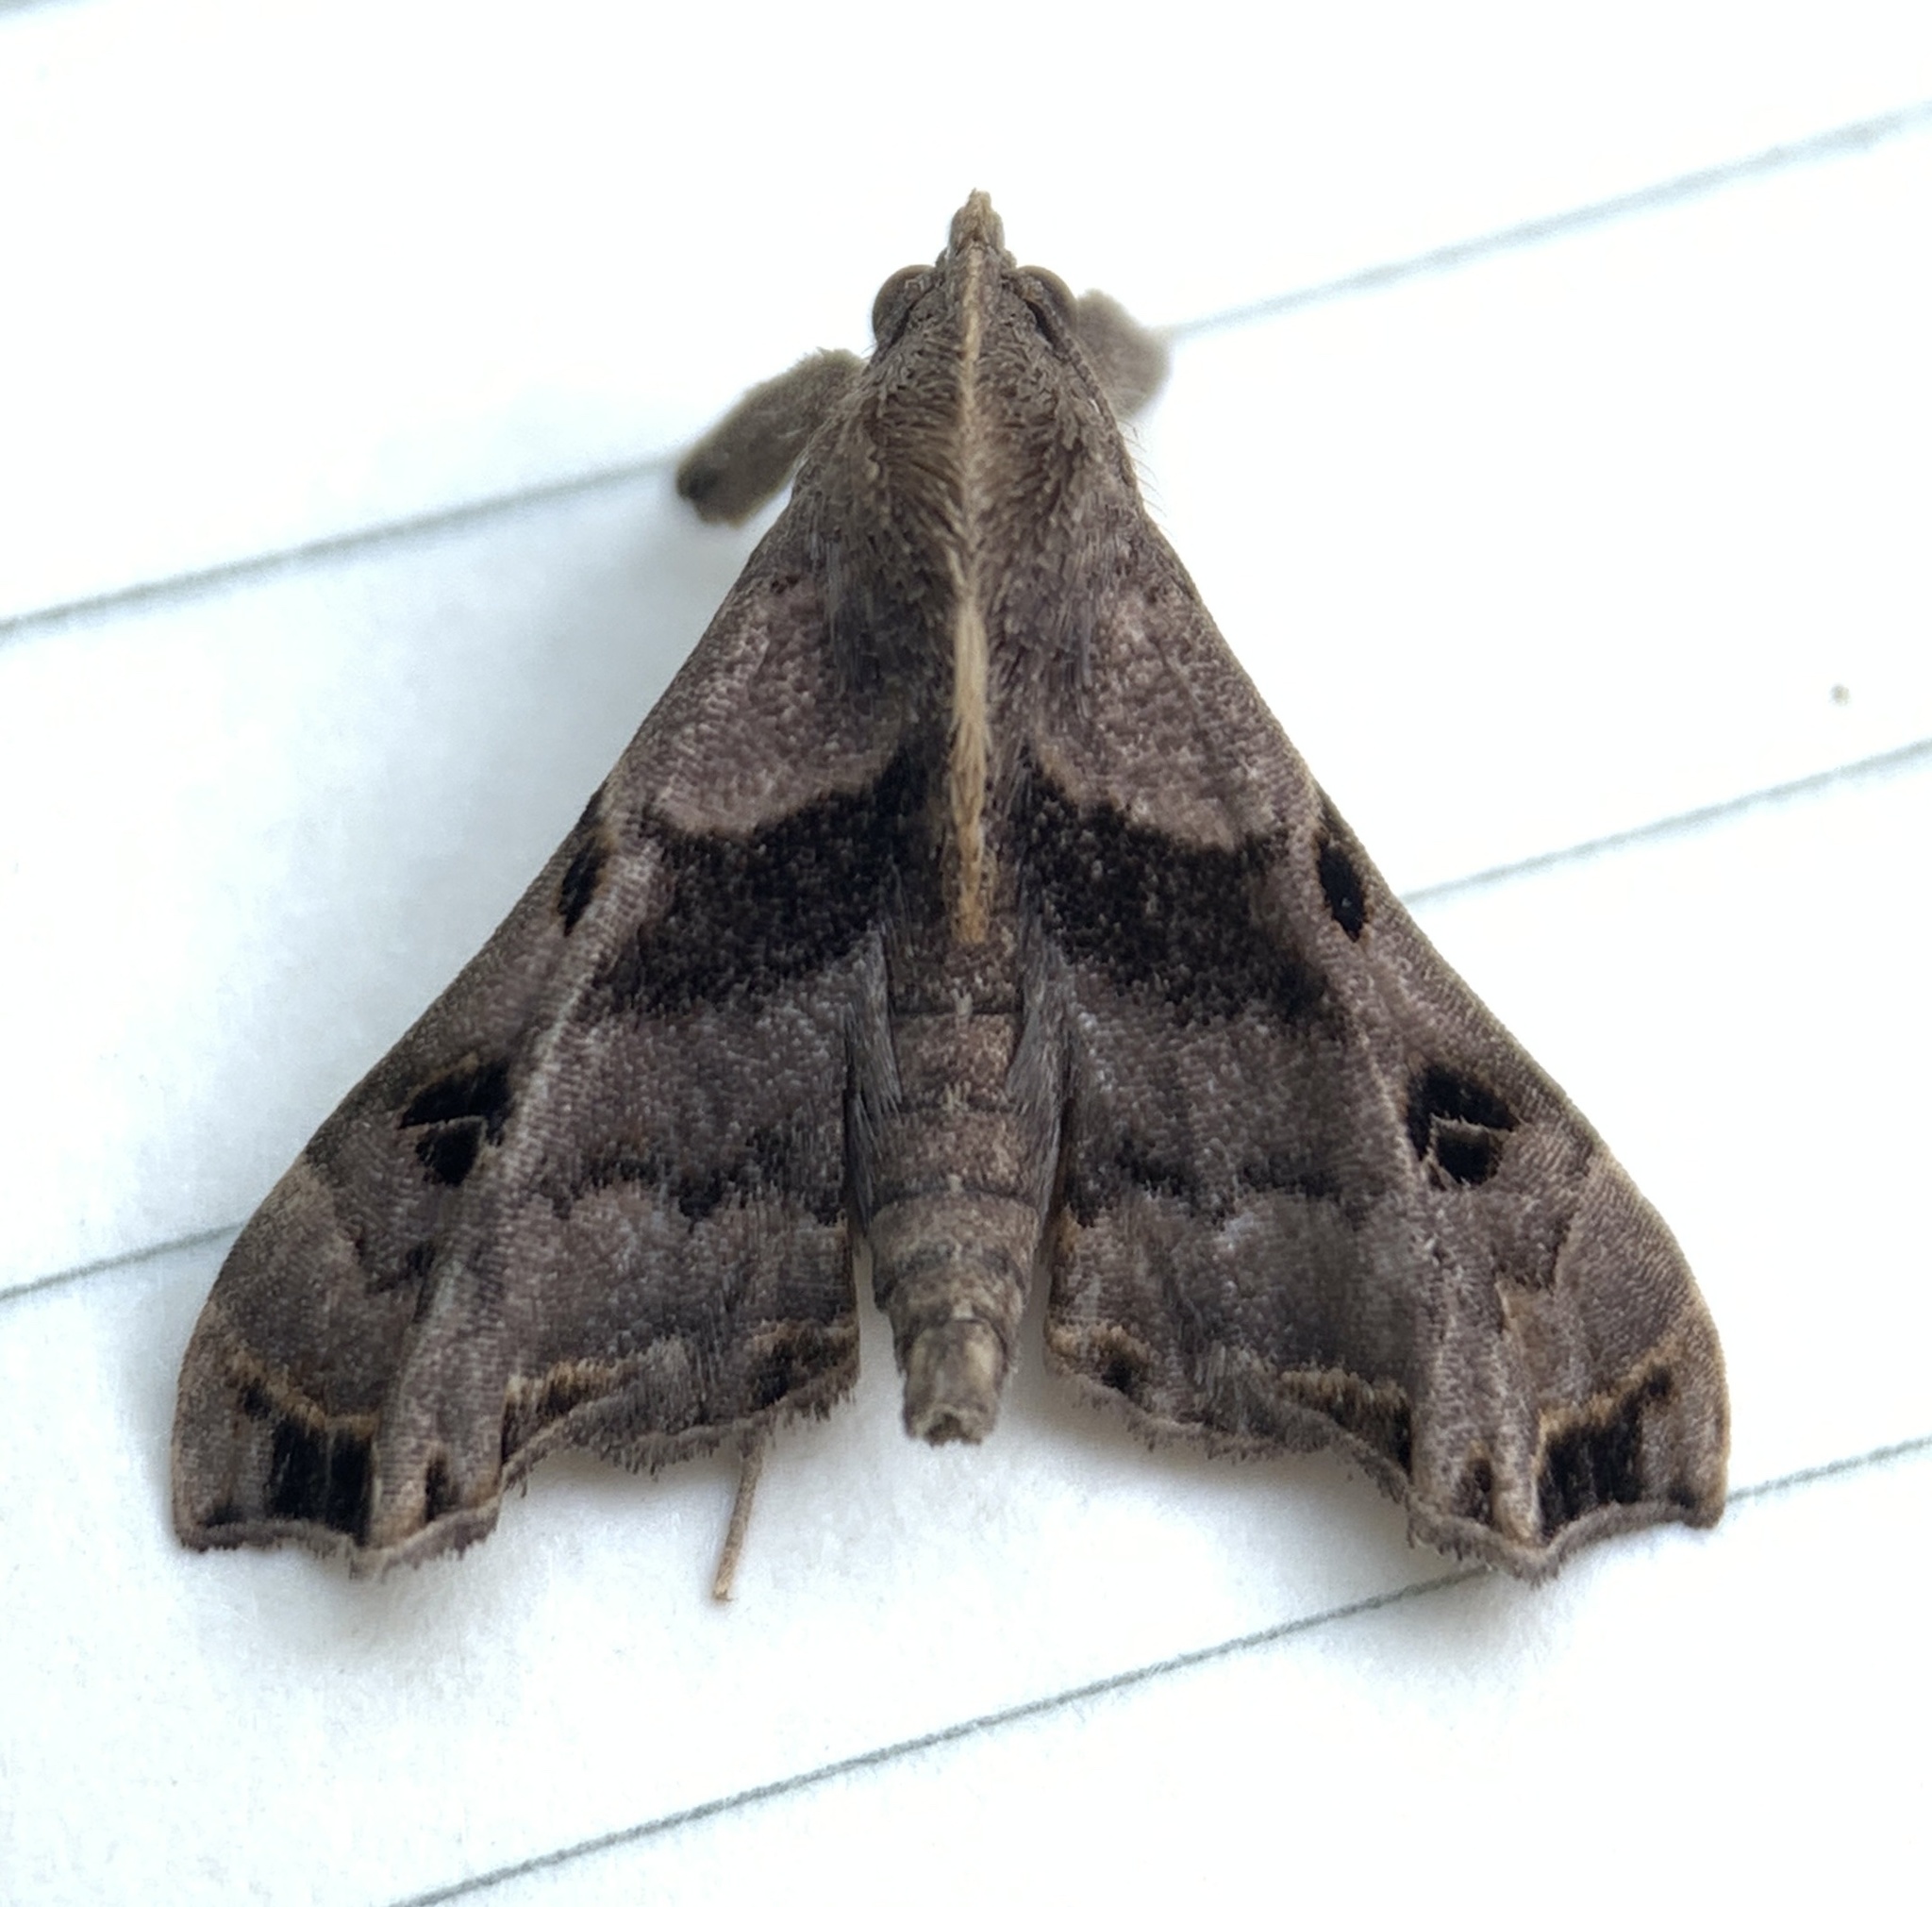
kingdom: Animalia
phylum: Arthropoda
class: Insecta
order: Lepidoptera
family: Erebidae
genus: Palthis
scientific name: Palthis asopialis
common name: Faint-spotted palthis moth
